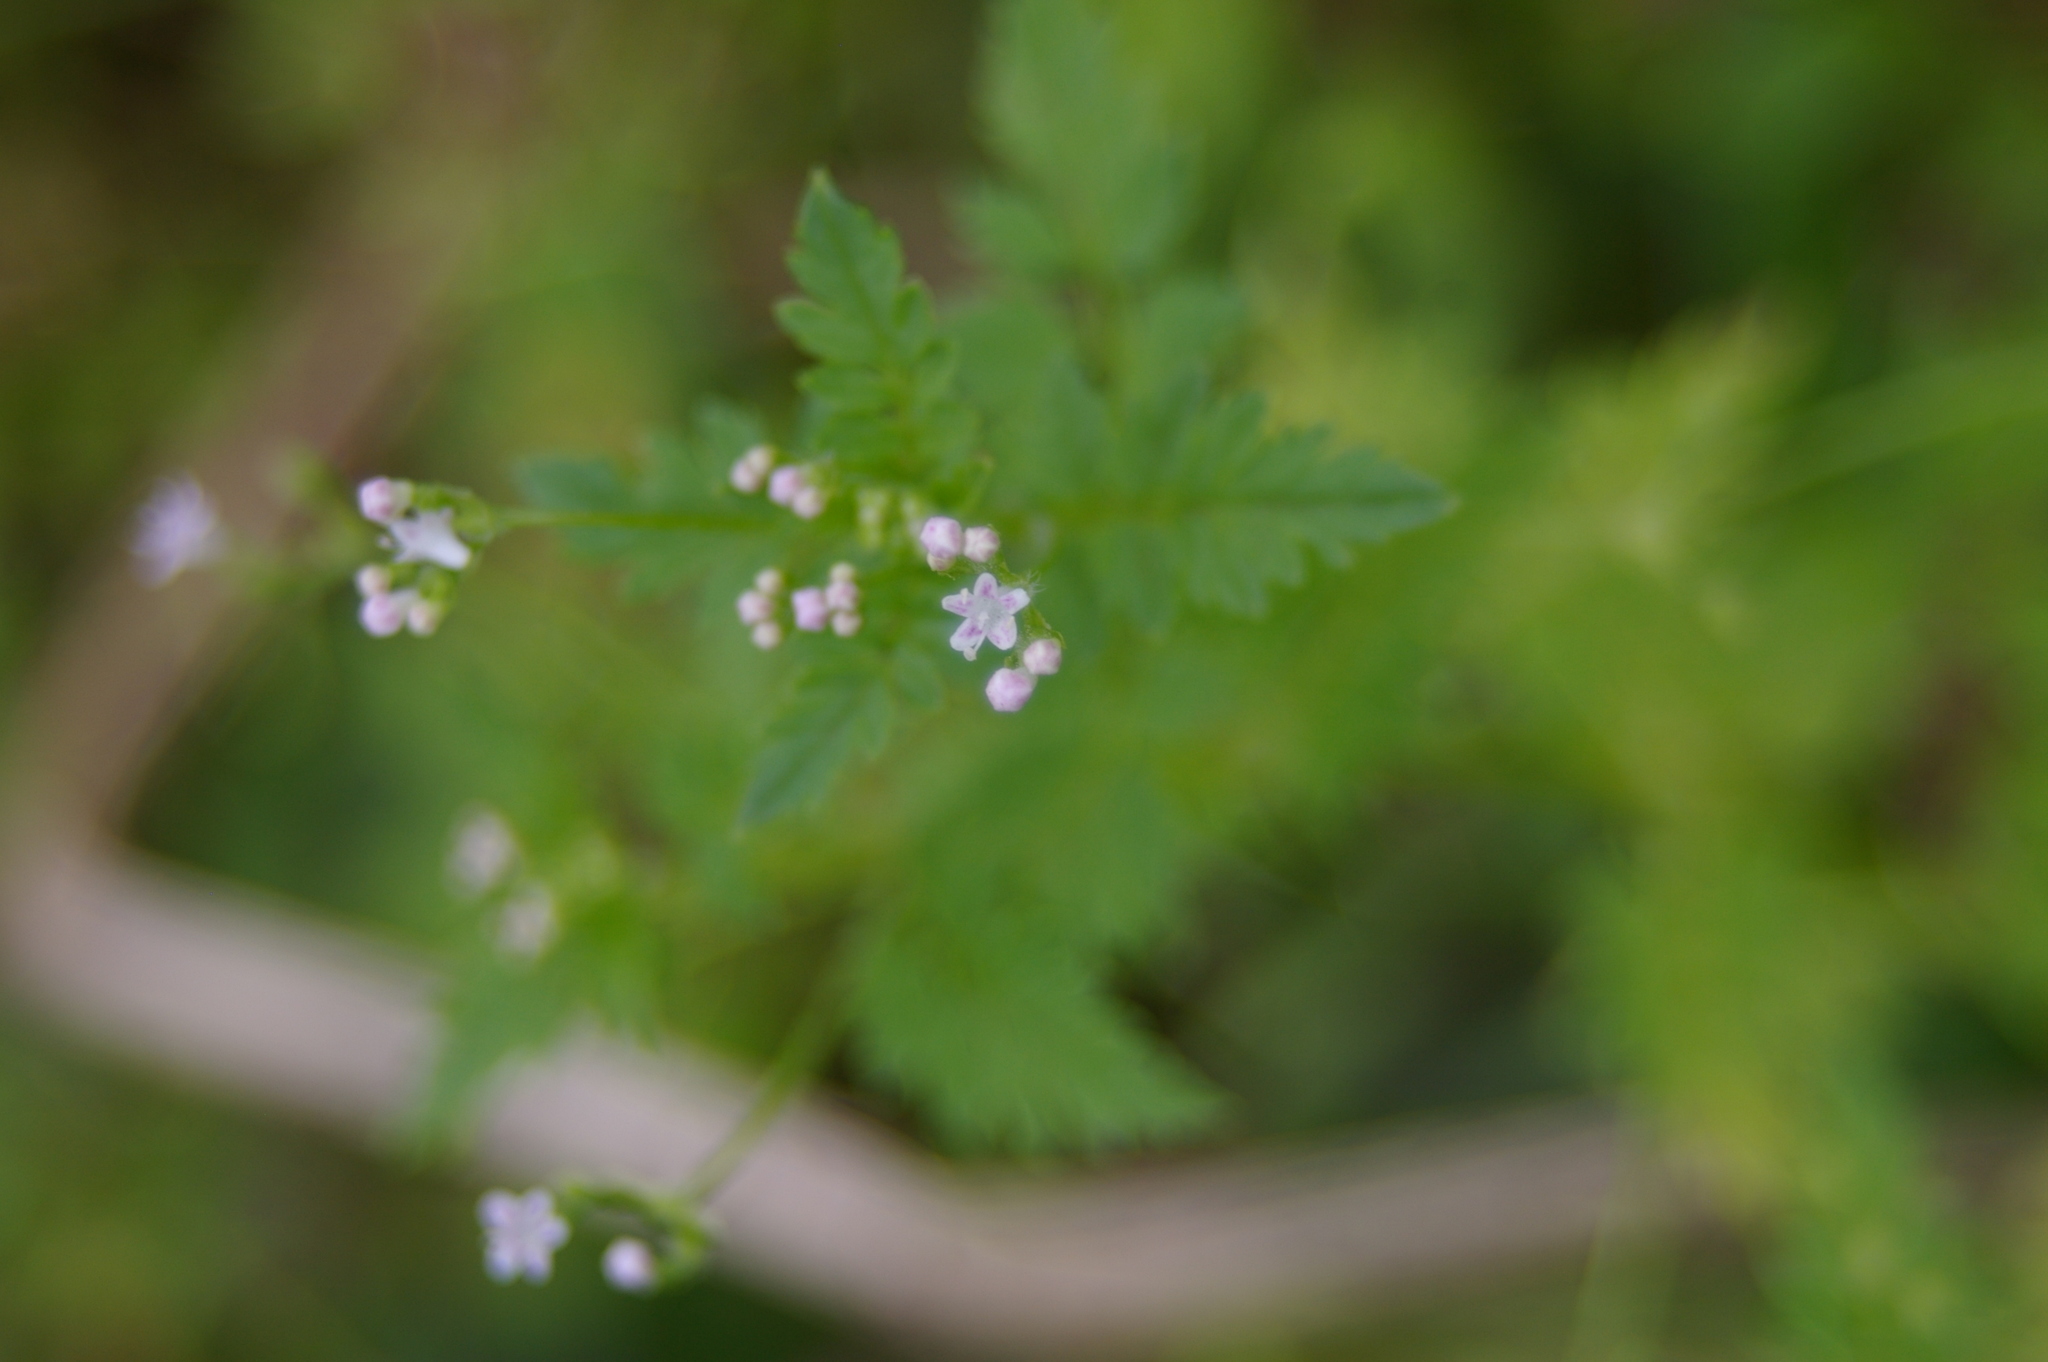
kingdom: Plantae
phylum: Tracheophyta
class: Magnoliopsida
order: Dipsacales
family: Caprifoliaceae
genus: Valeriana
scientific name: Valeriana chaerophylloides
